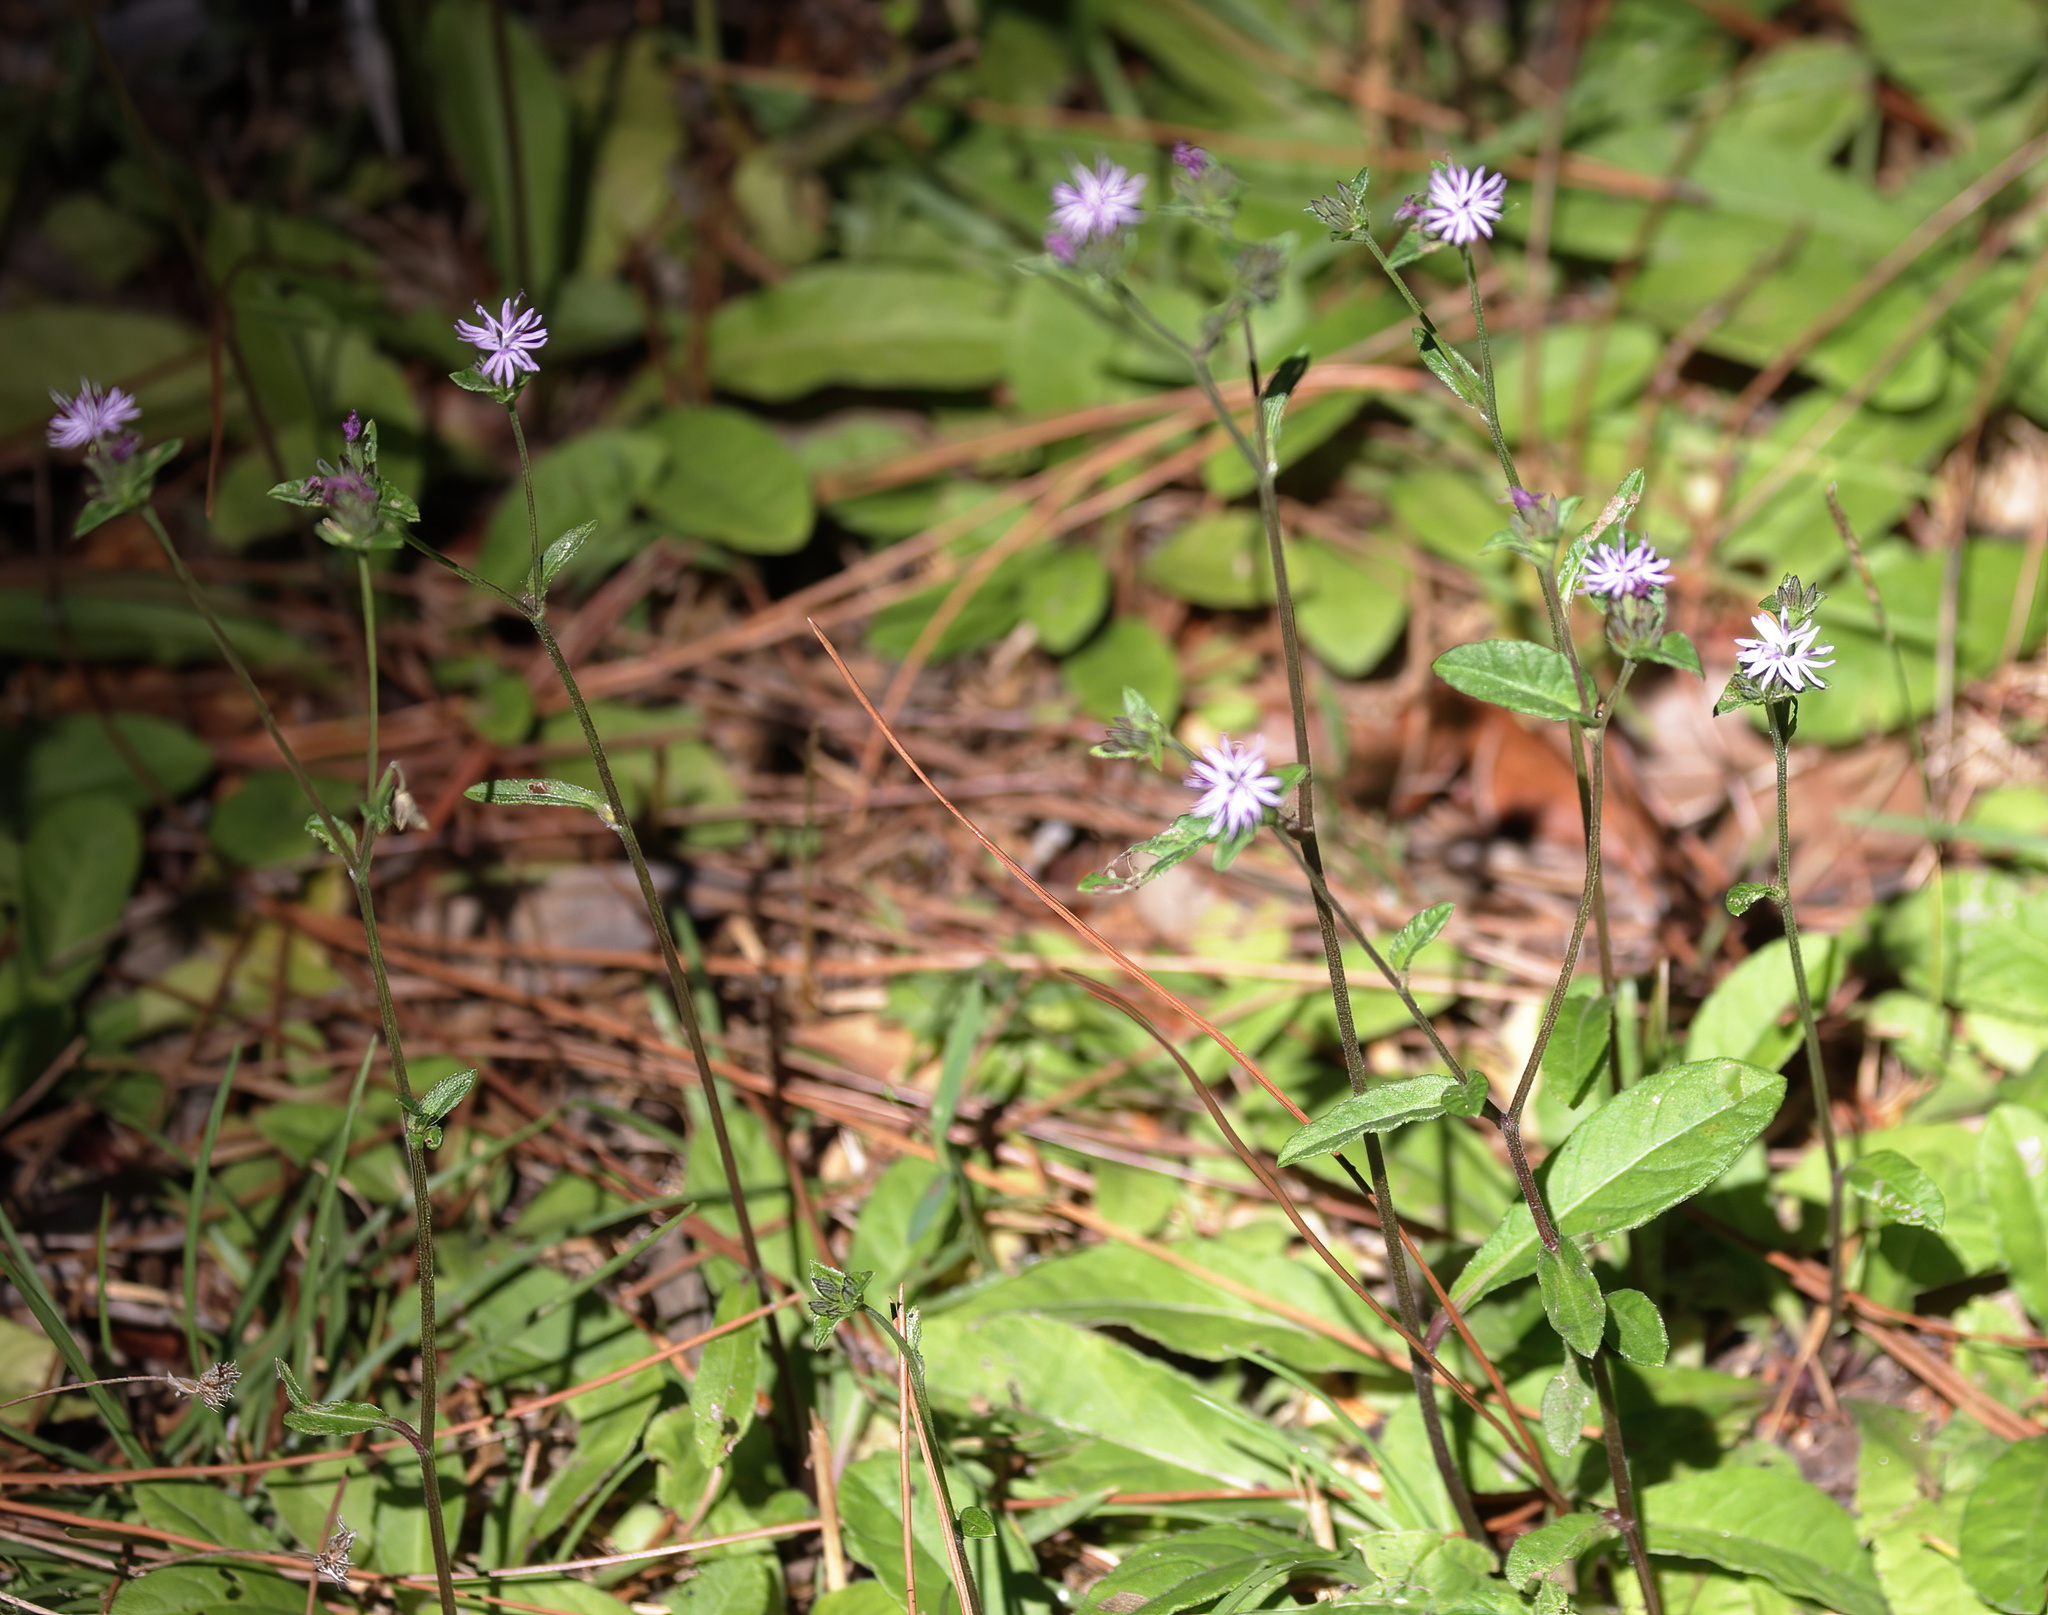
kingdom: Plantae
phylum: Tracheophyta
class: Magnoliopsida
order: Asterales
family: Asteraceae
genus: Elephantopus
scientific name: Elephantopus nudatus
